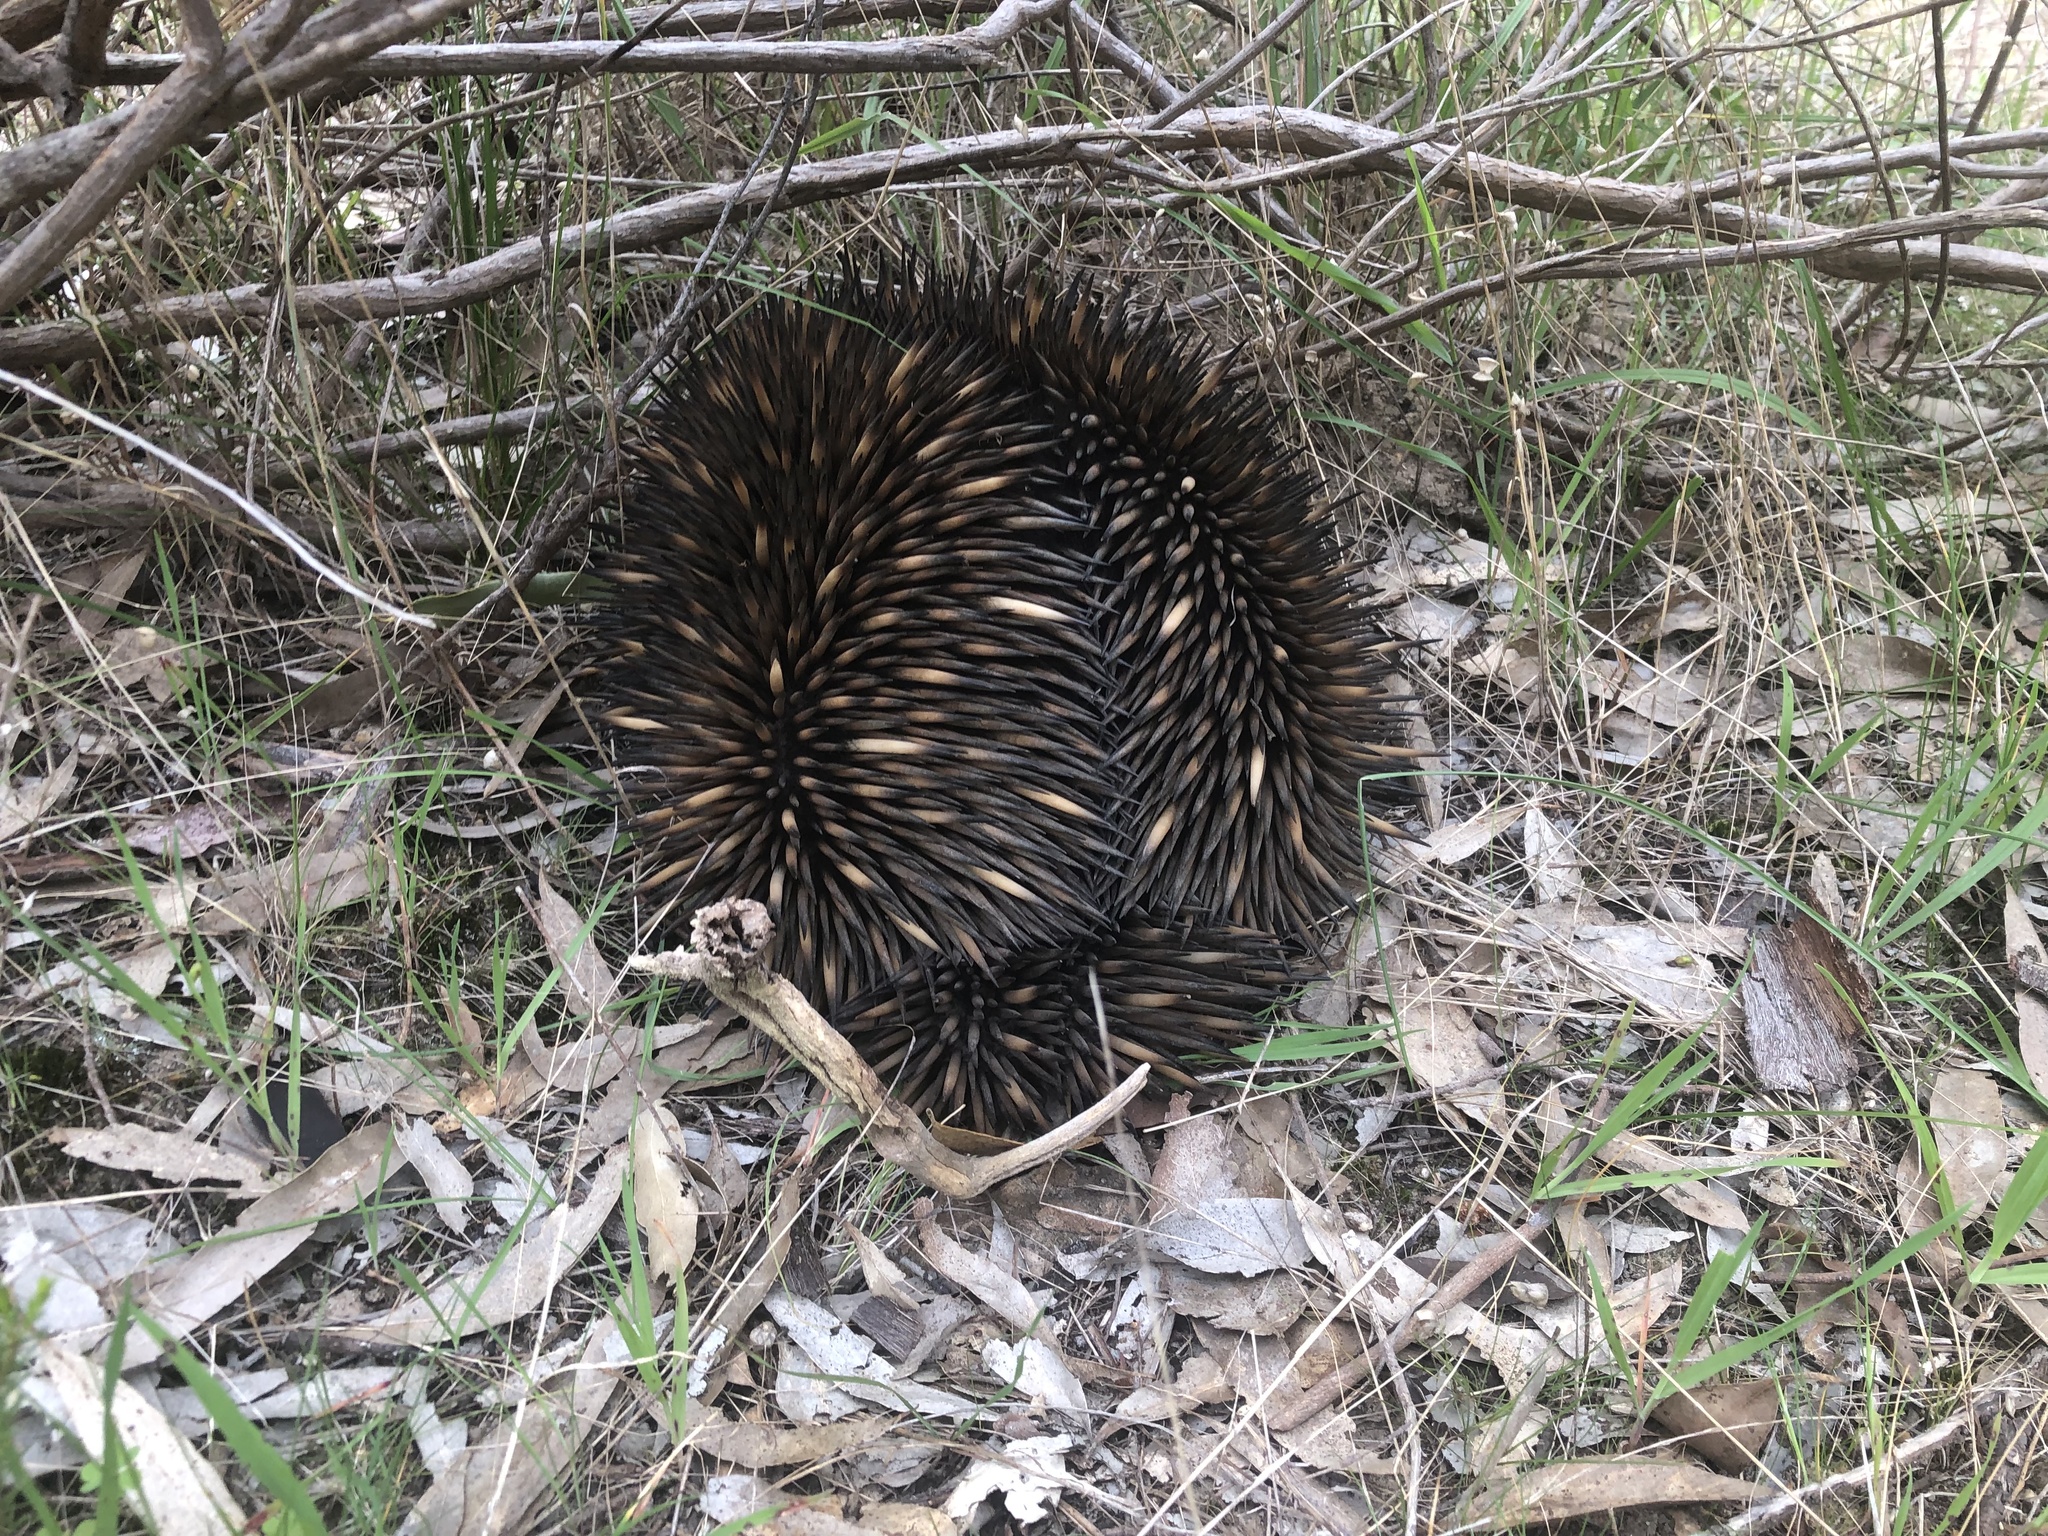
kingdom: Animalia
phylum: Chordata
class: Mammalia
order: Monotremata
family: Tachyglossidae
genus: Tachyglossus
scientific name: Tachyglossus aculeatus
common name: Short-beaked echidna
